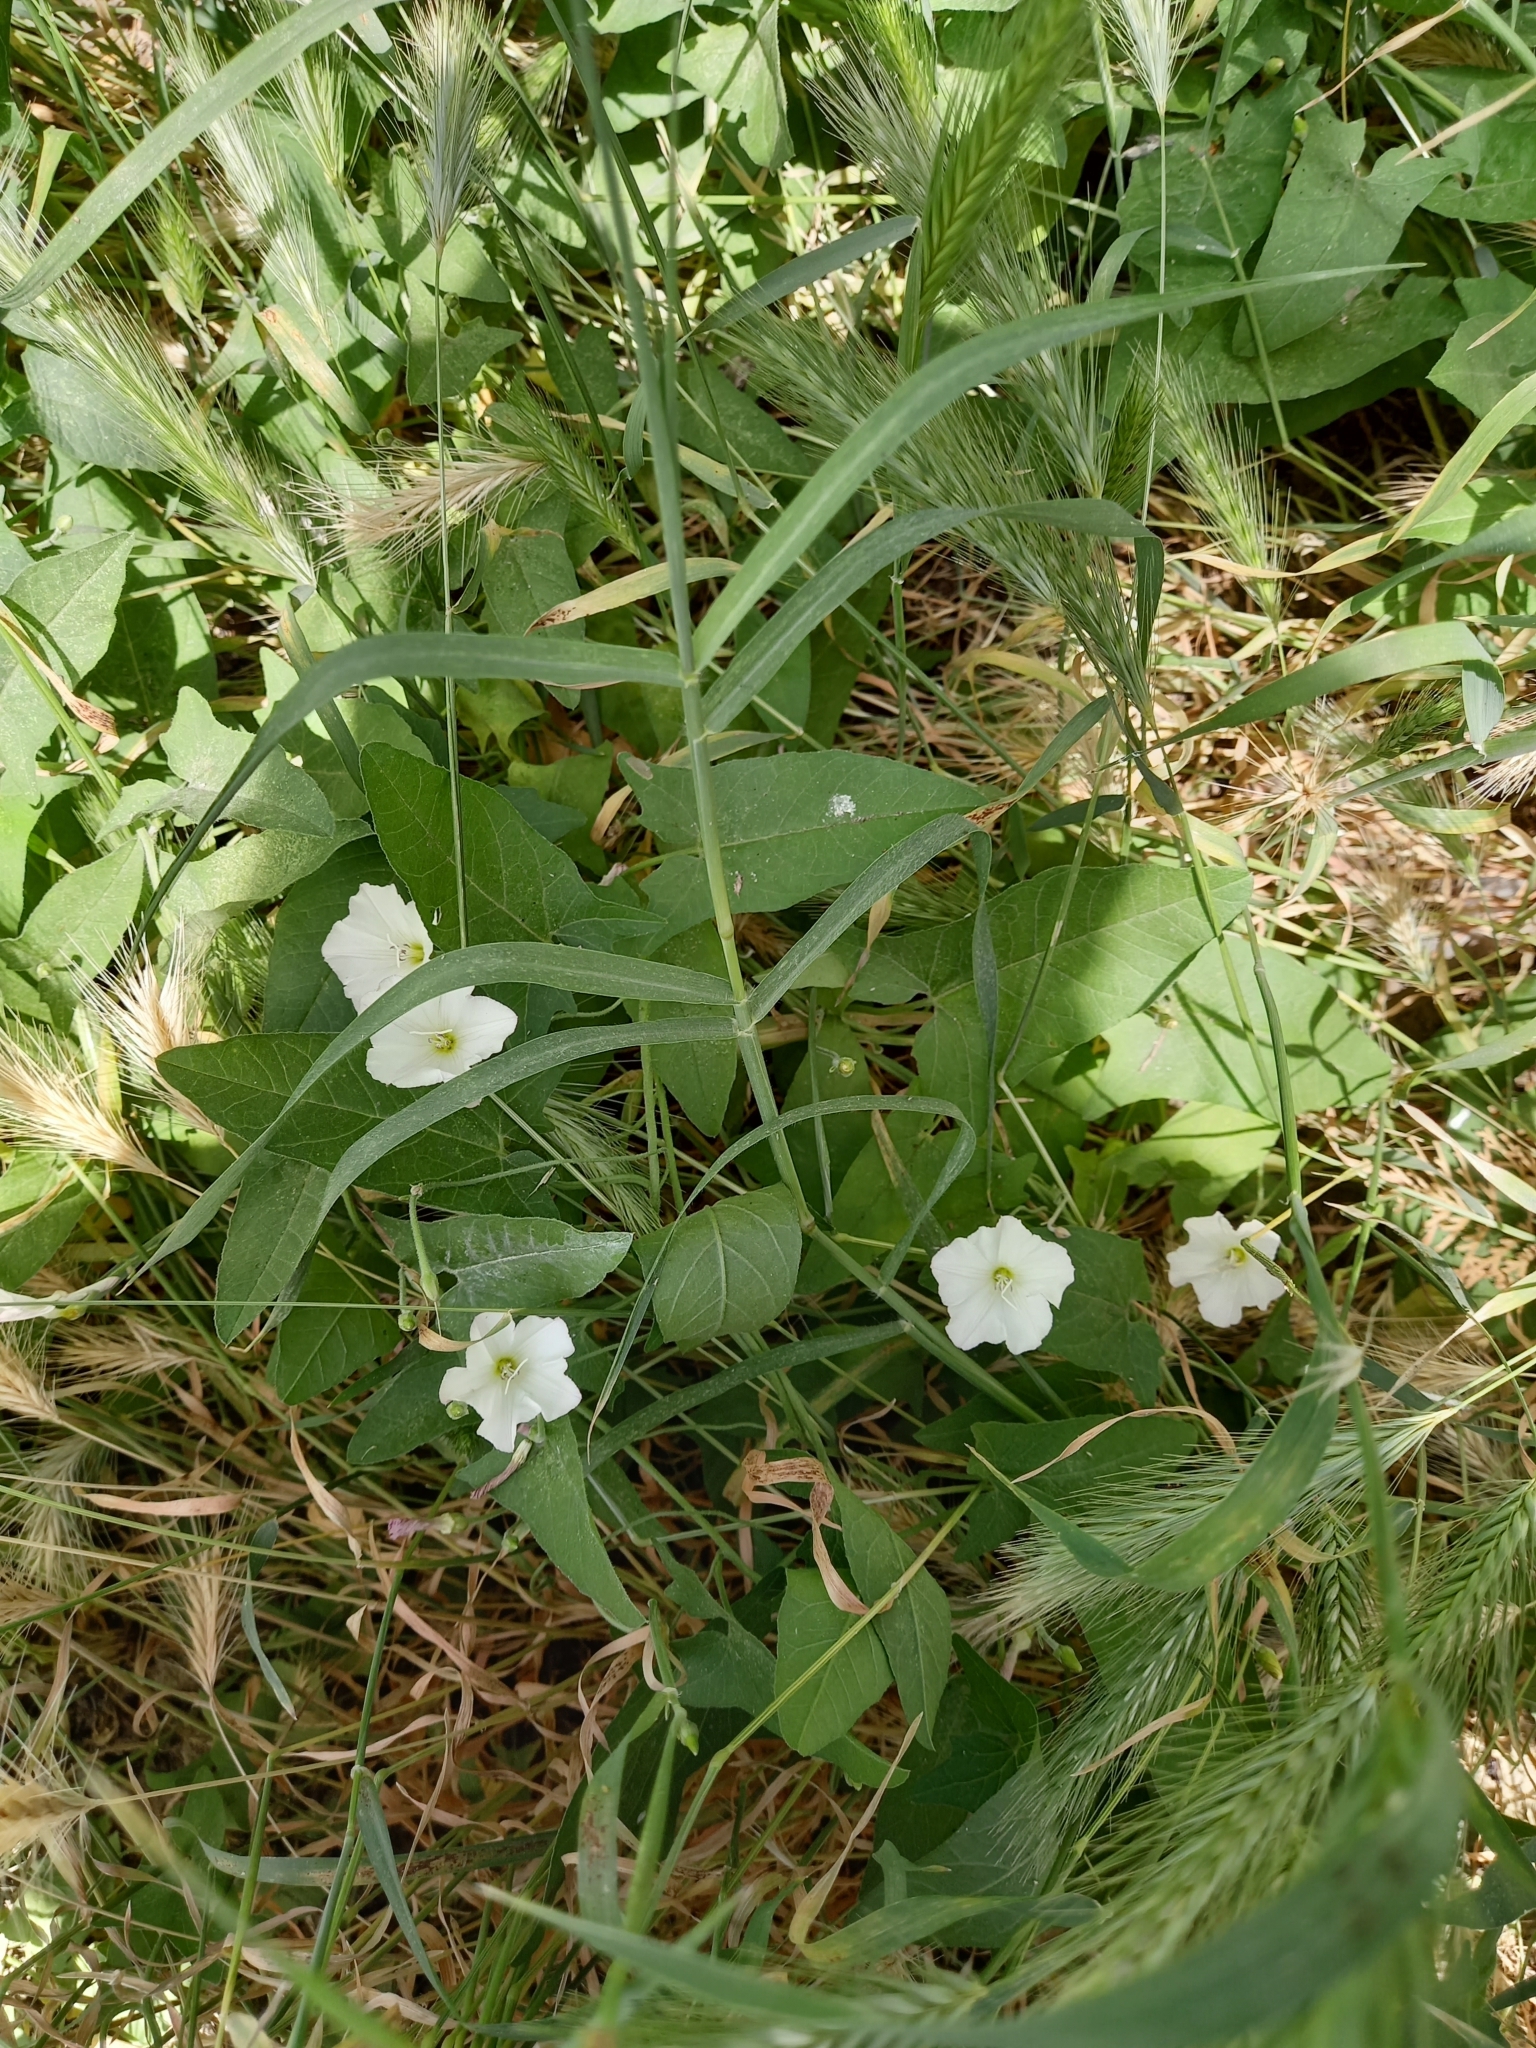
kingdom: Plantae
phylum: Tracheophyta
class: Magnoliopsida
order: Solanales
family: Convolvulaceae
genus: Convolvulus
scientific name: Convolvulus arvensis
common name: Field bindweed
